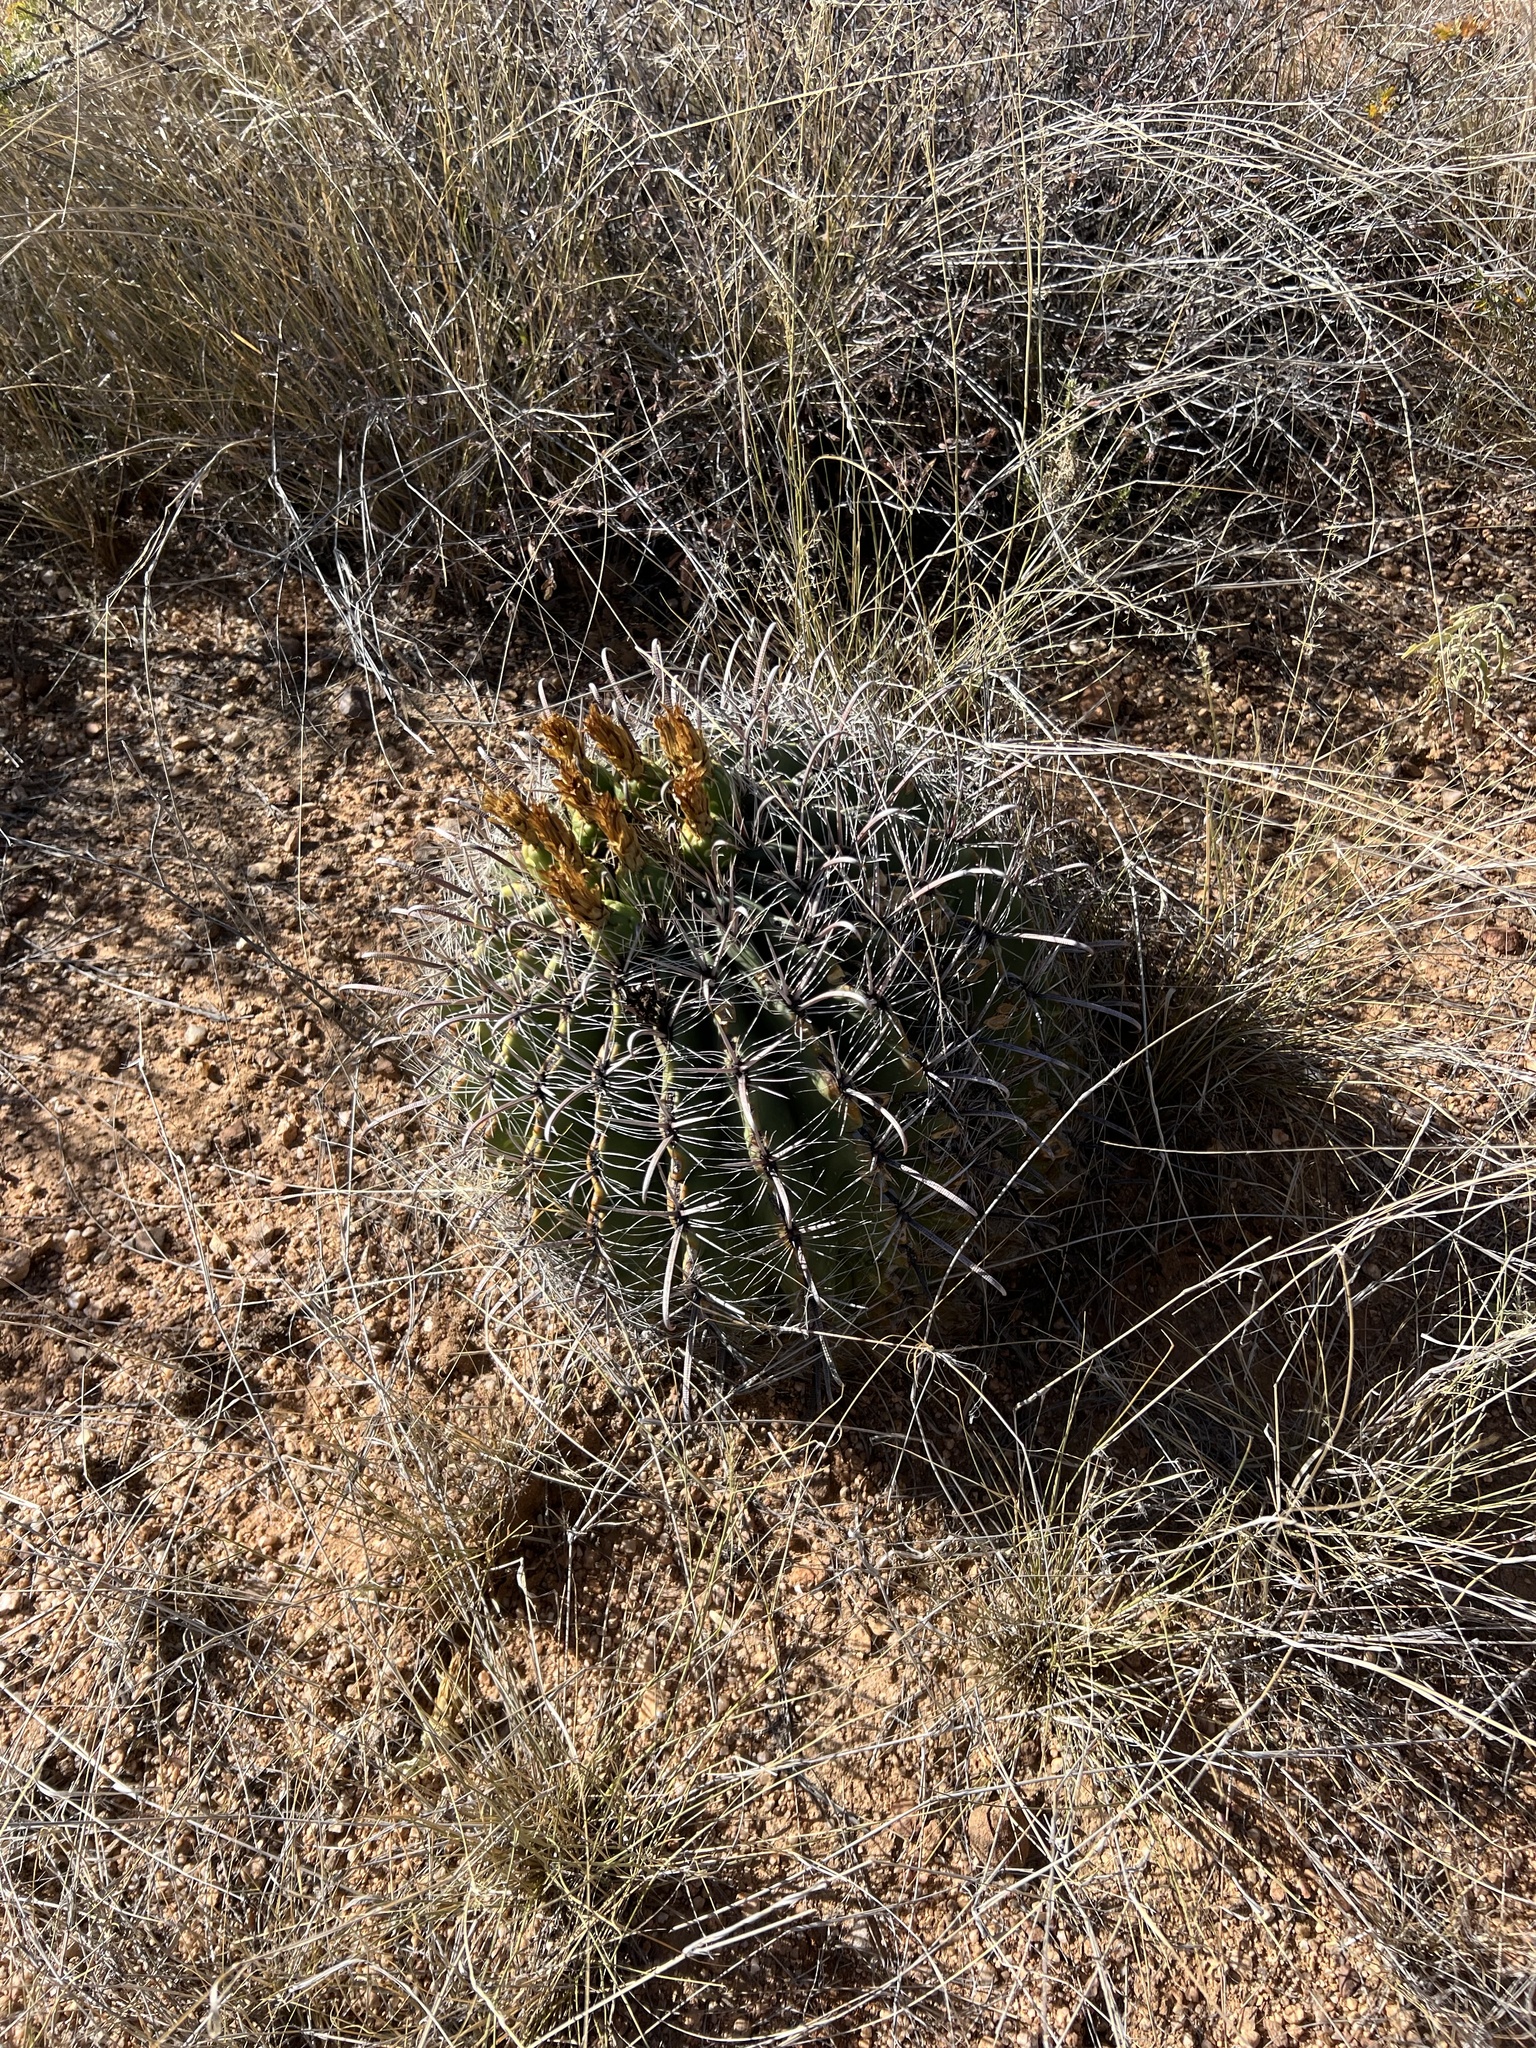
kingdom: Plantae
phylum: Tracheophyta
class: Magnoliopsida
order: Caryophyllales
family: Cactaceae
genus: Ferocactus
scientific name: Ferocactus wislizeni
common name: Candy barrel cactus
